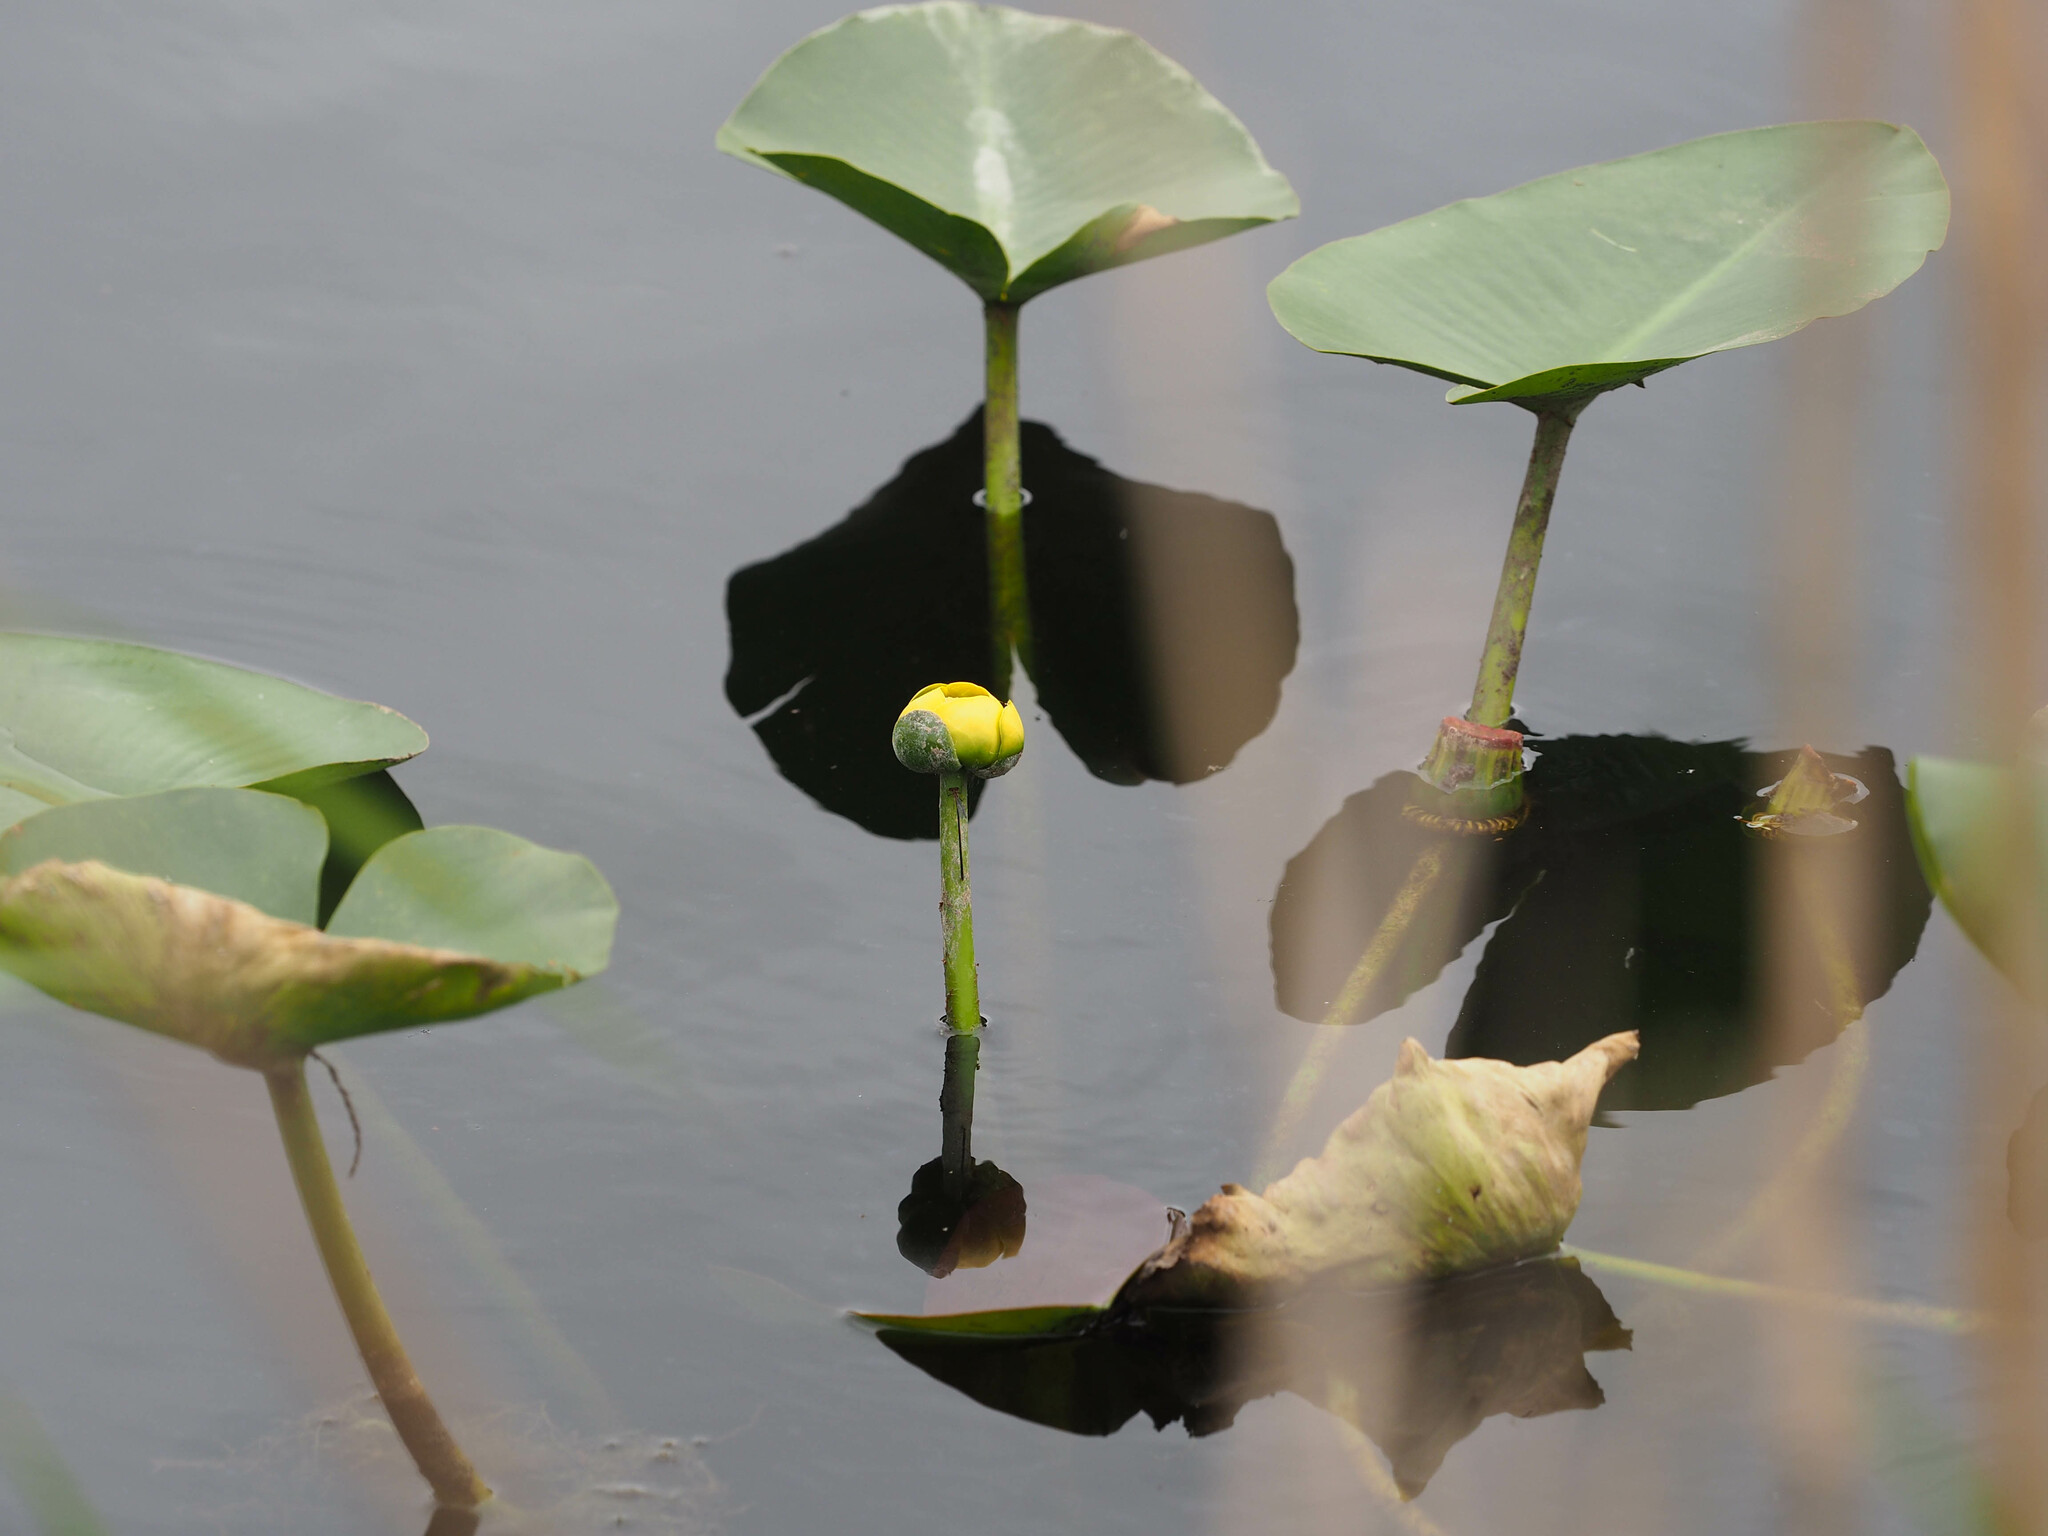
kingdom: Plantae
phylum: Tracheophyta
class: Magnoliopsida
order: Nymphaeales
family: Nymphaeaceae
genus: Nuphar
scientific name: Nuphar advena
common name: Spatter-dock
